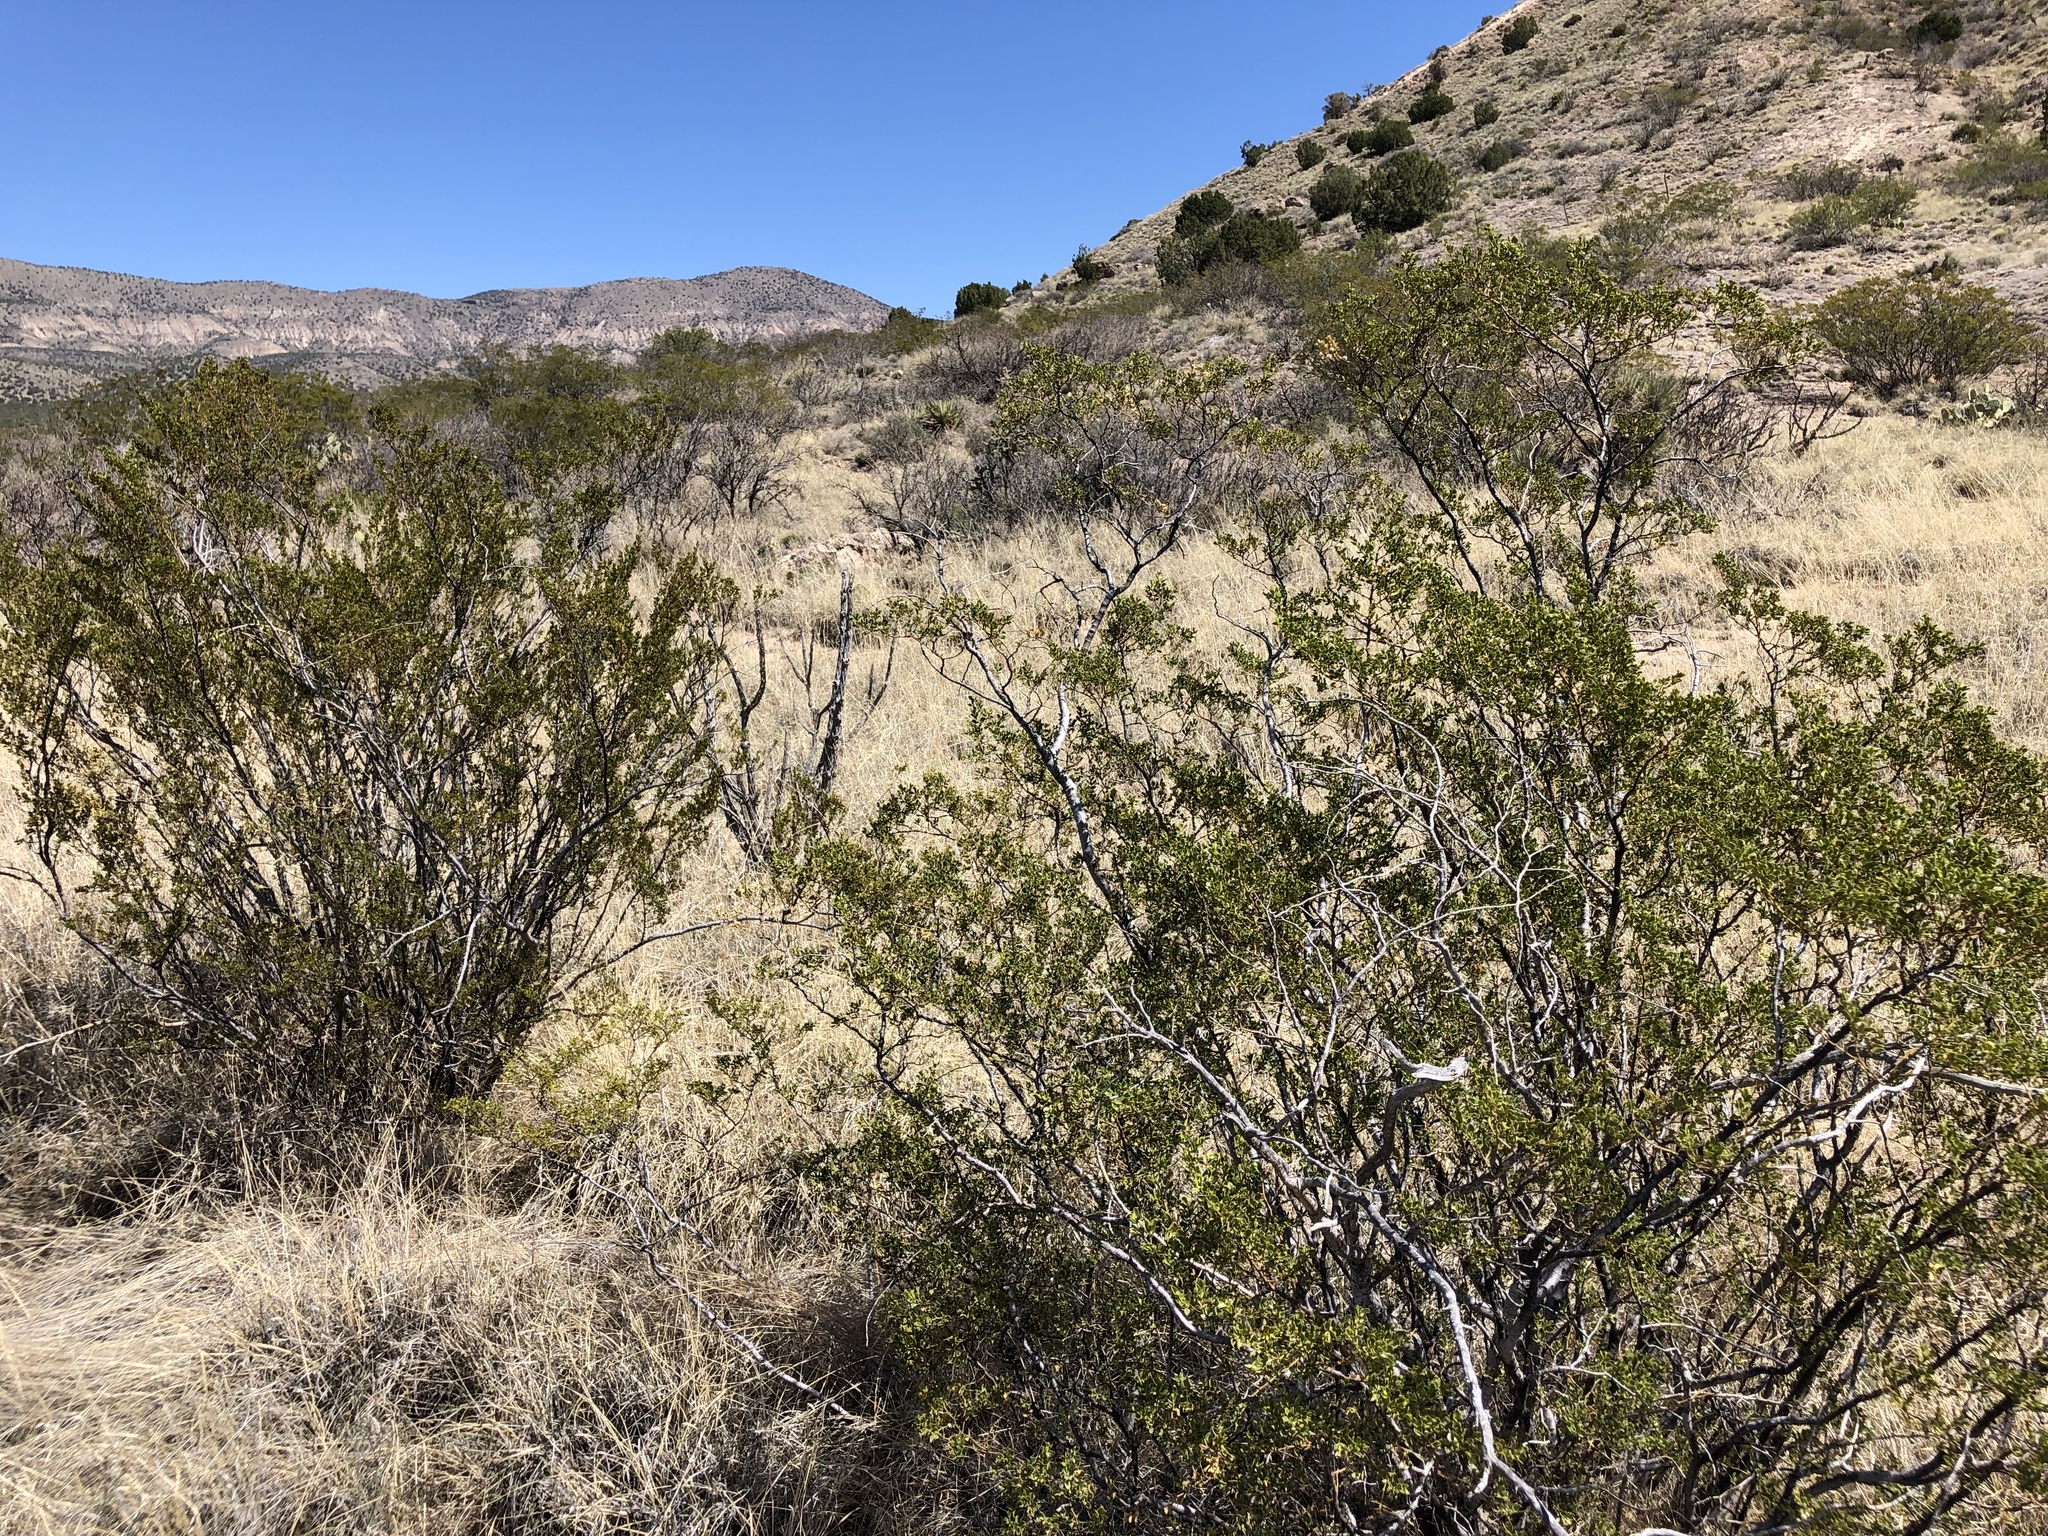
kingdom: Plantae
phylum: Tracheophyta
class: Magnoliopsida
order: Zygophyllales
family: Zygophyllaceae
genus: Larrea
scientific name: Larrea tridentata
